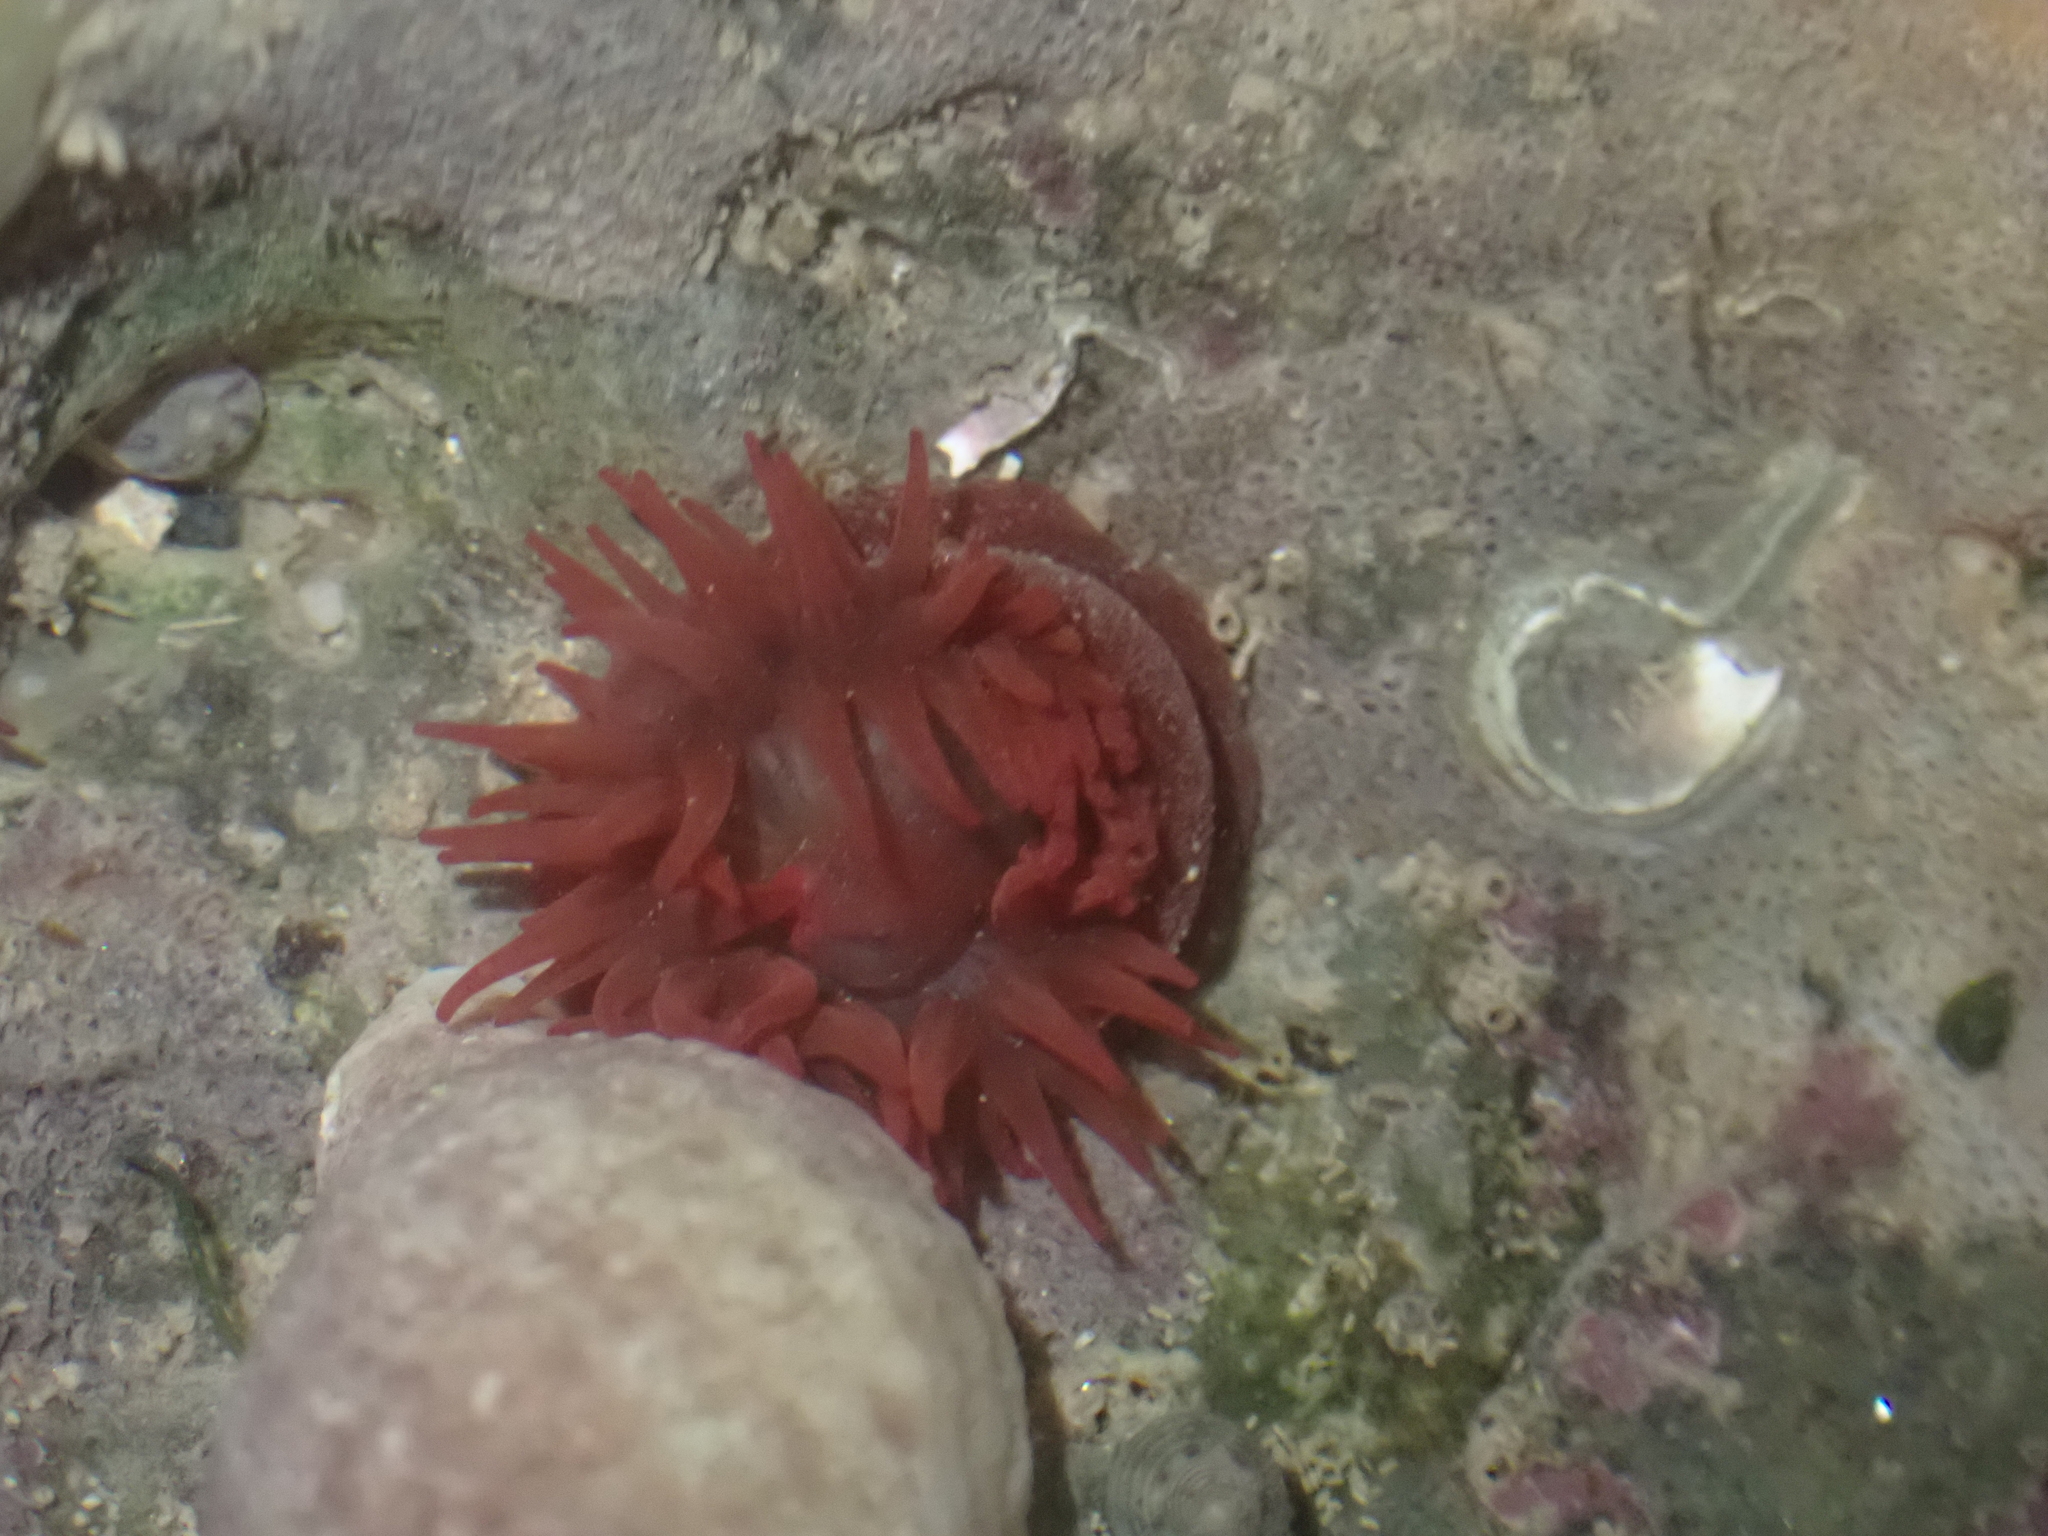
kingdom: Animalia
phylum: Cnidaria
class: Anthozoa
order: Actiniaria
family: Actiniidae
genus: Actinia
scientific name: Actinia equina
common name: Beadlet anemone
